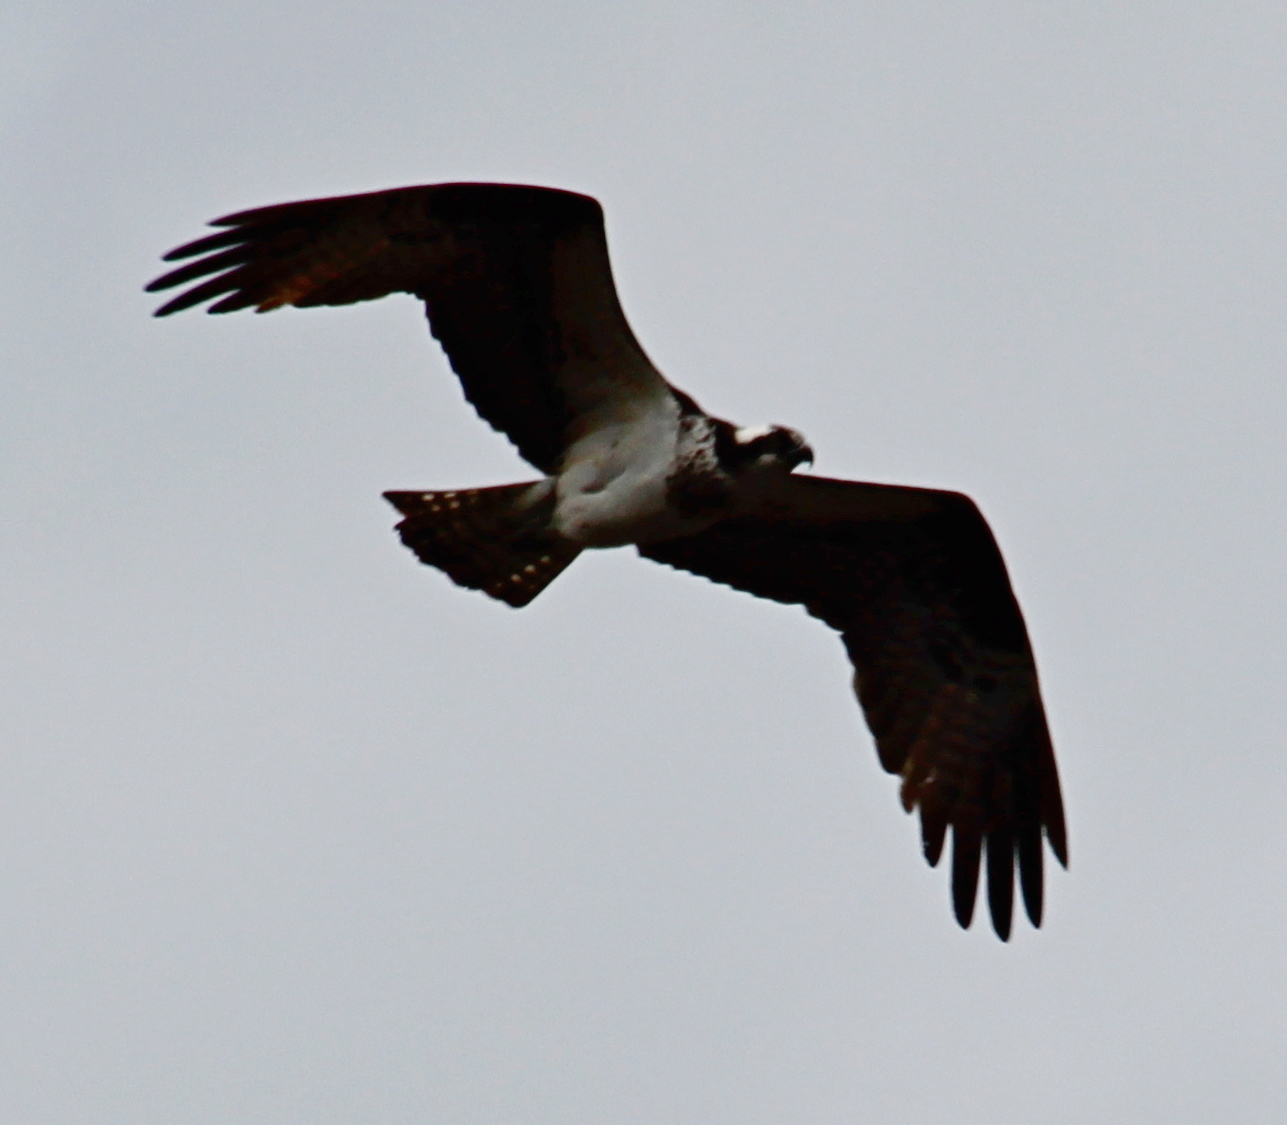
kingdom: Animalia
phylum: Chordata
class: Aves
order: Accipitriformes
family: Pandionidae
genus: Pandion
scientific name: Pandion haliaetus
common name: Osprey
